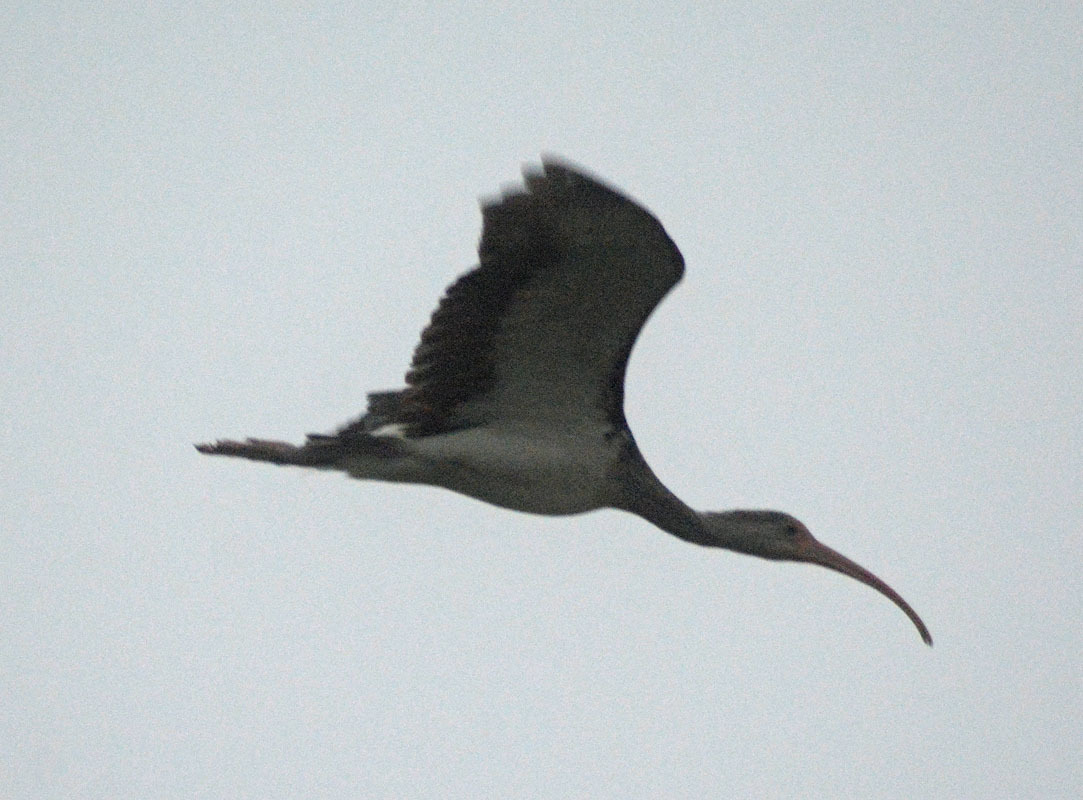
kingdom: Animalia
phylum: Chordata
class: Aves
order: Pelecaniformes
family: Threskiornithidae
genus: Eudocimus
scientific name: Eudocimus albus
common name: White ibis
